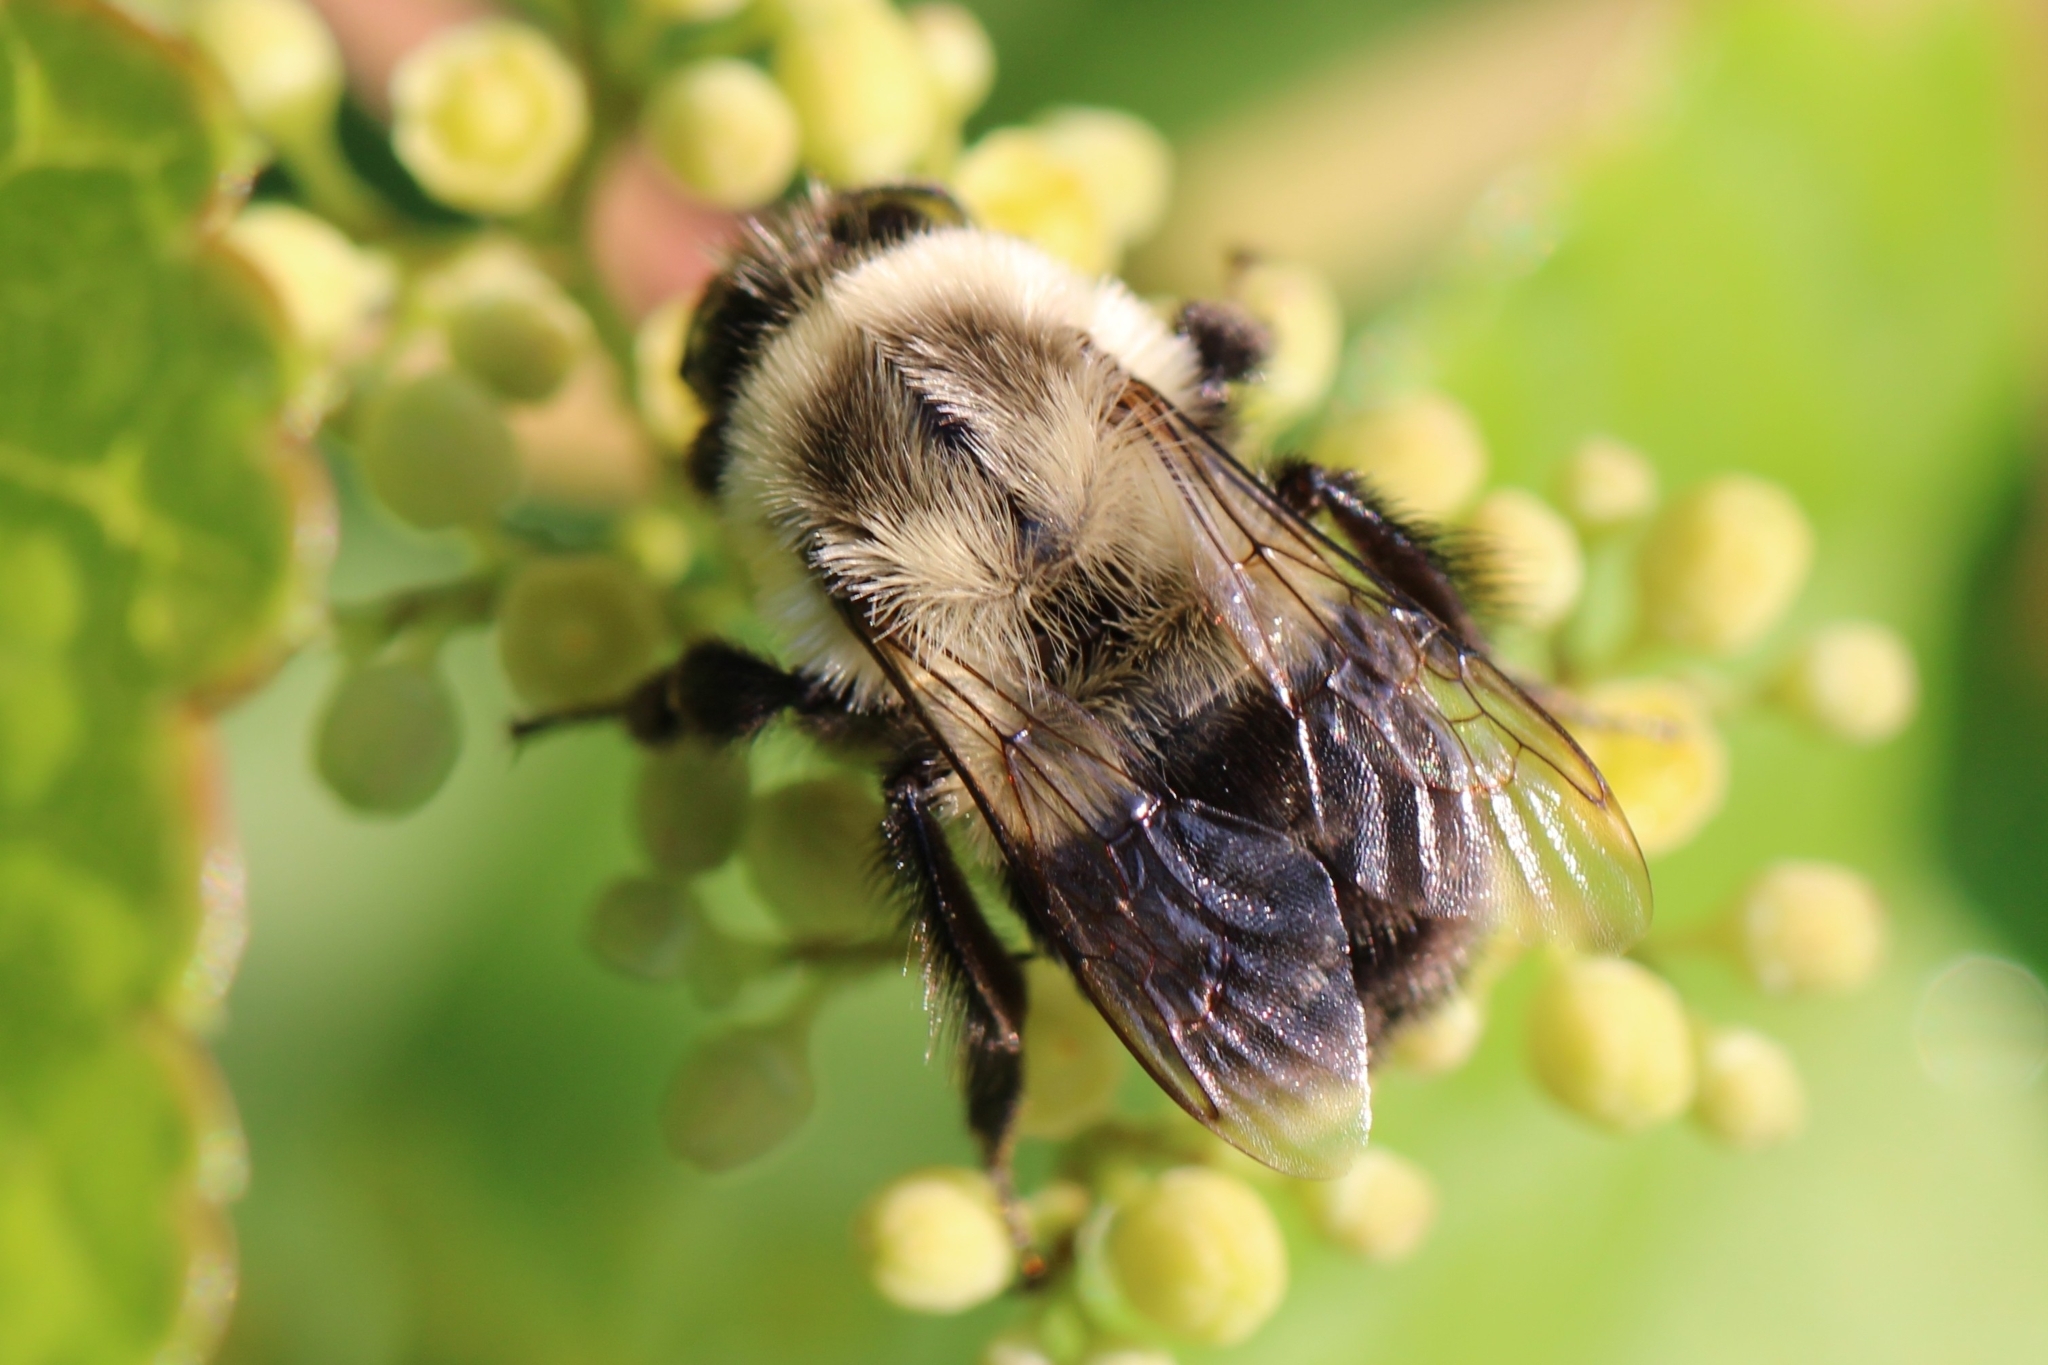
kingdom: Animalia
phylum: Arthropoda
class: Insecta
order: Hymenoptera
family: Apidae
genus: Bombus
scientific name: Bombus impatiens
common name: Common eastern bumble bee
